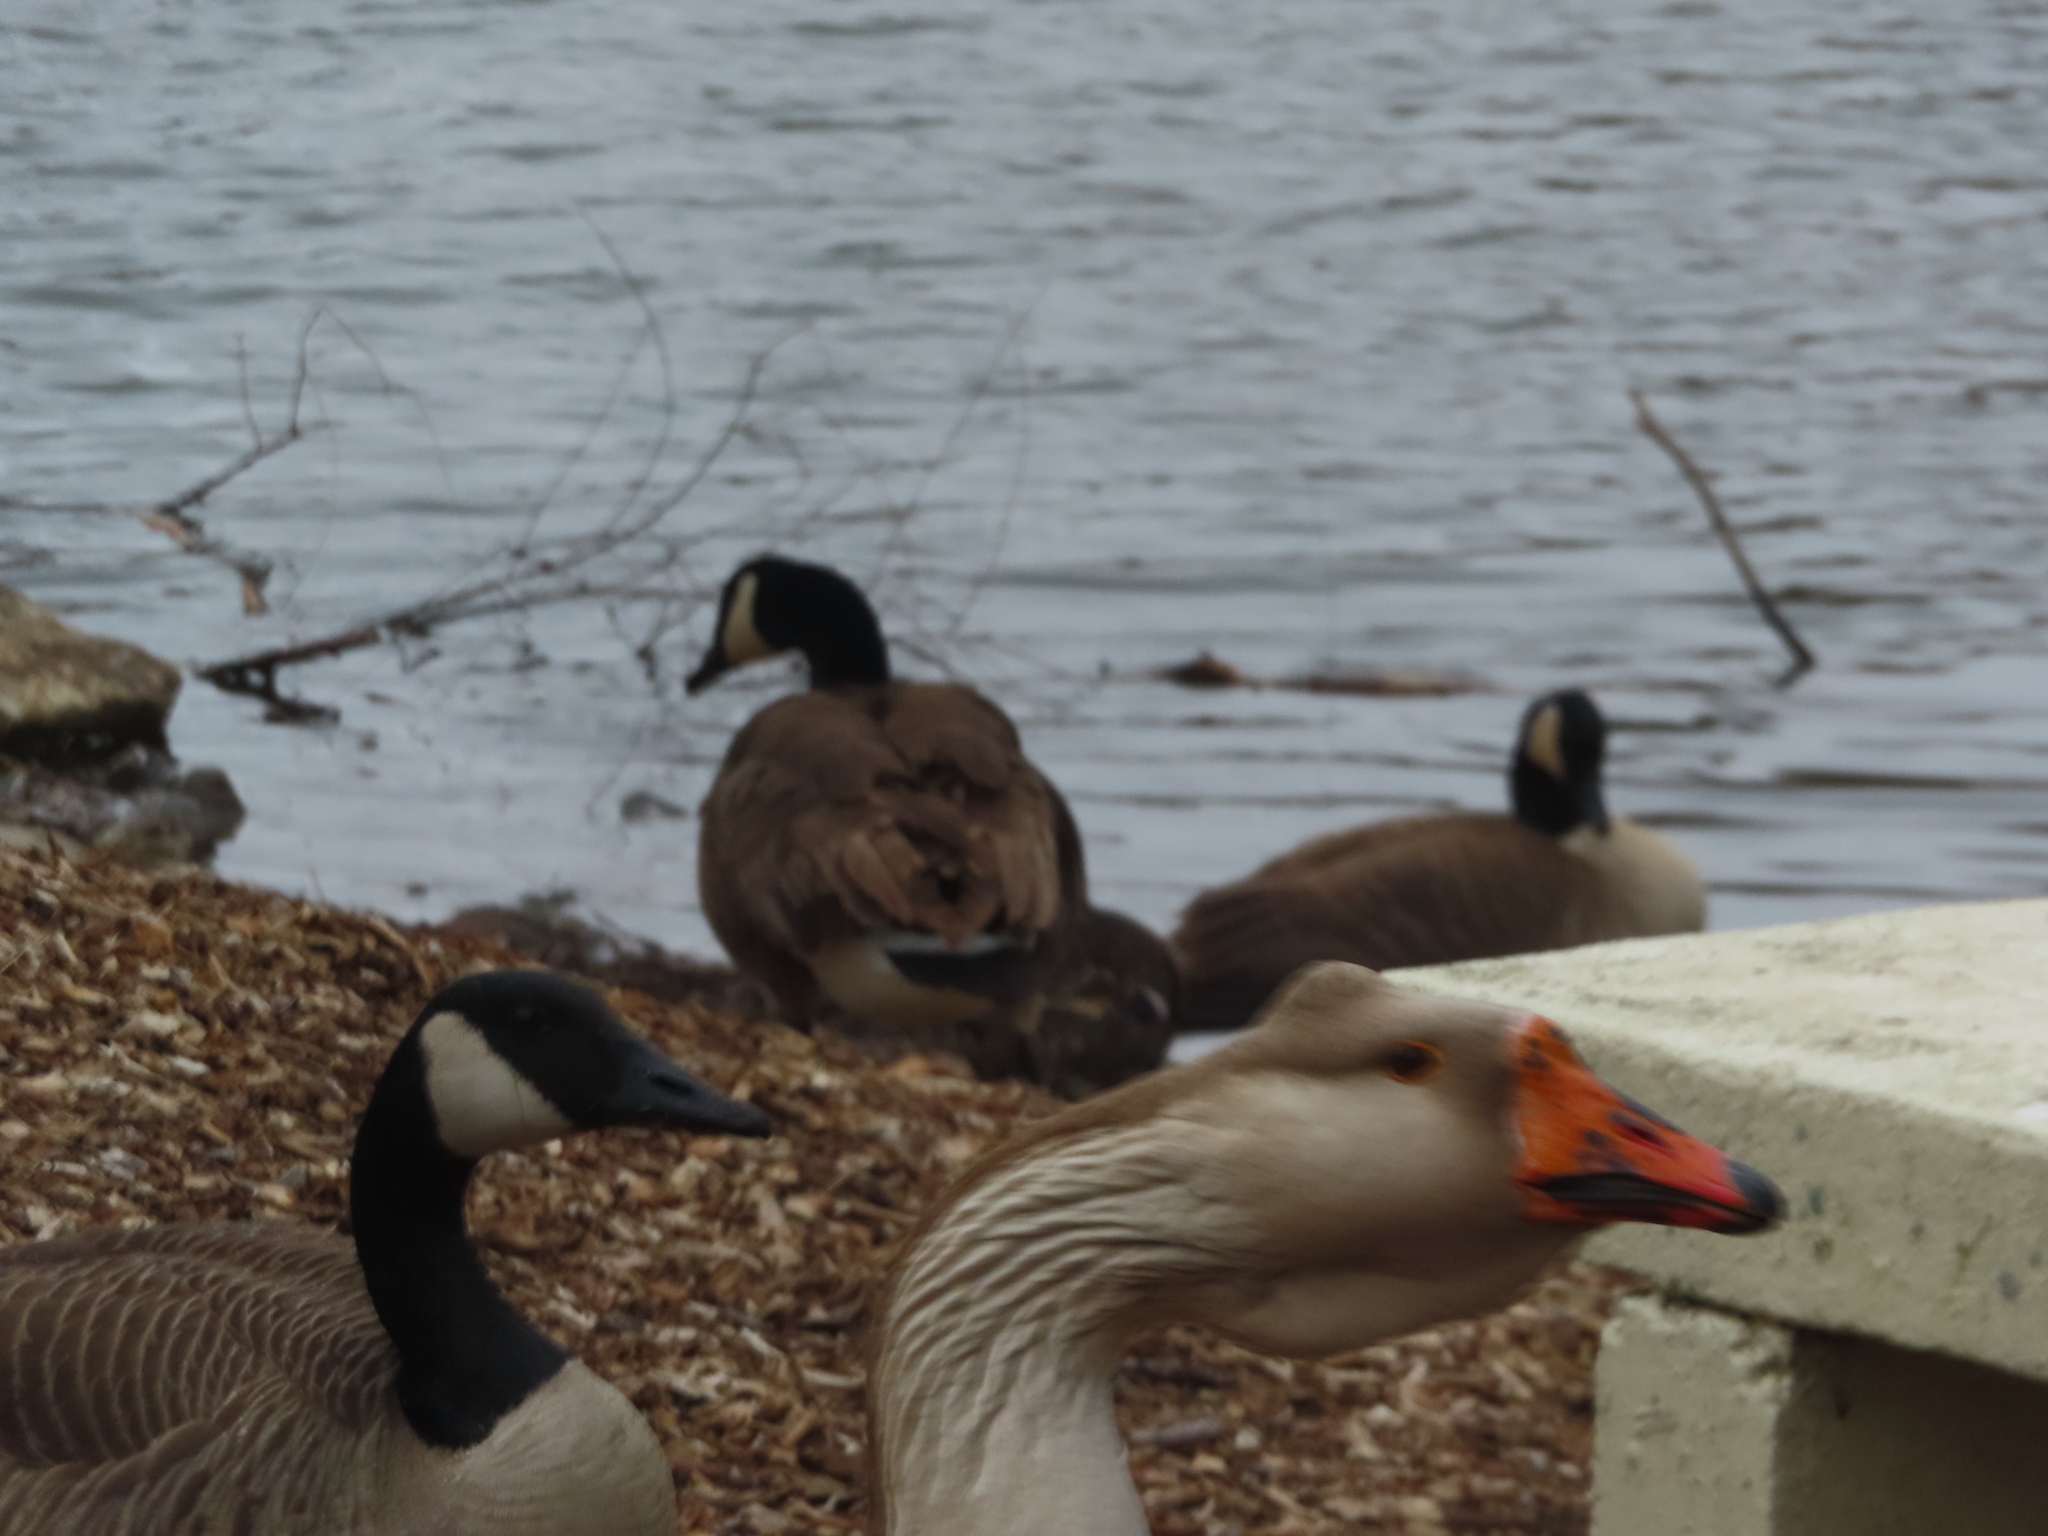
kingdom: Animalia
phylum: Chordata
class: Aves
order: Anseriformes
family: Anatidae
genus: Branta
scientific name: Branta canadensis
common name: Canada goose
